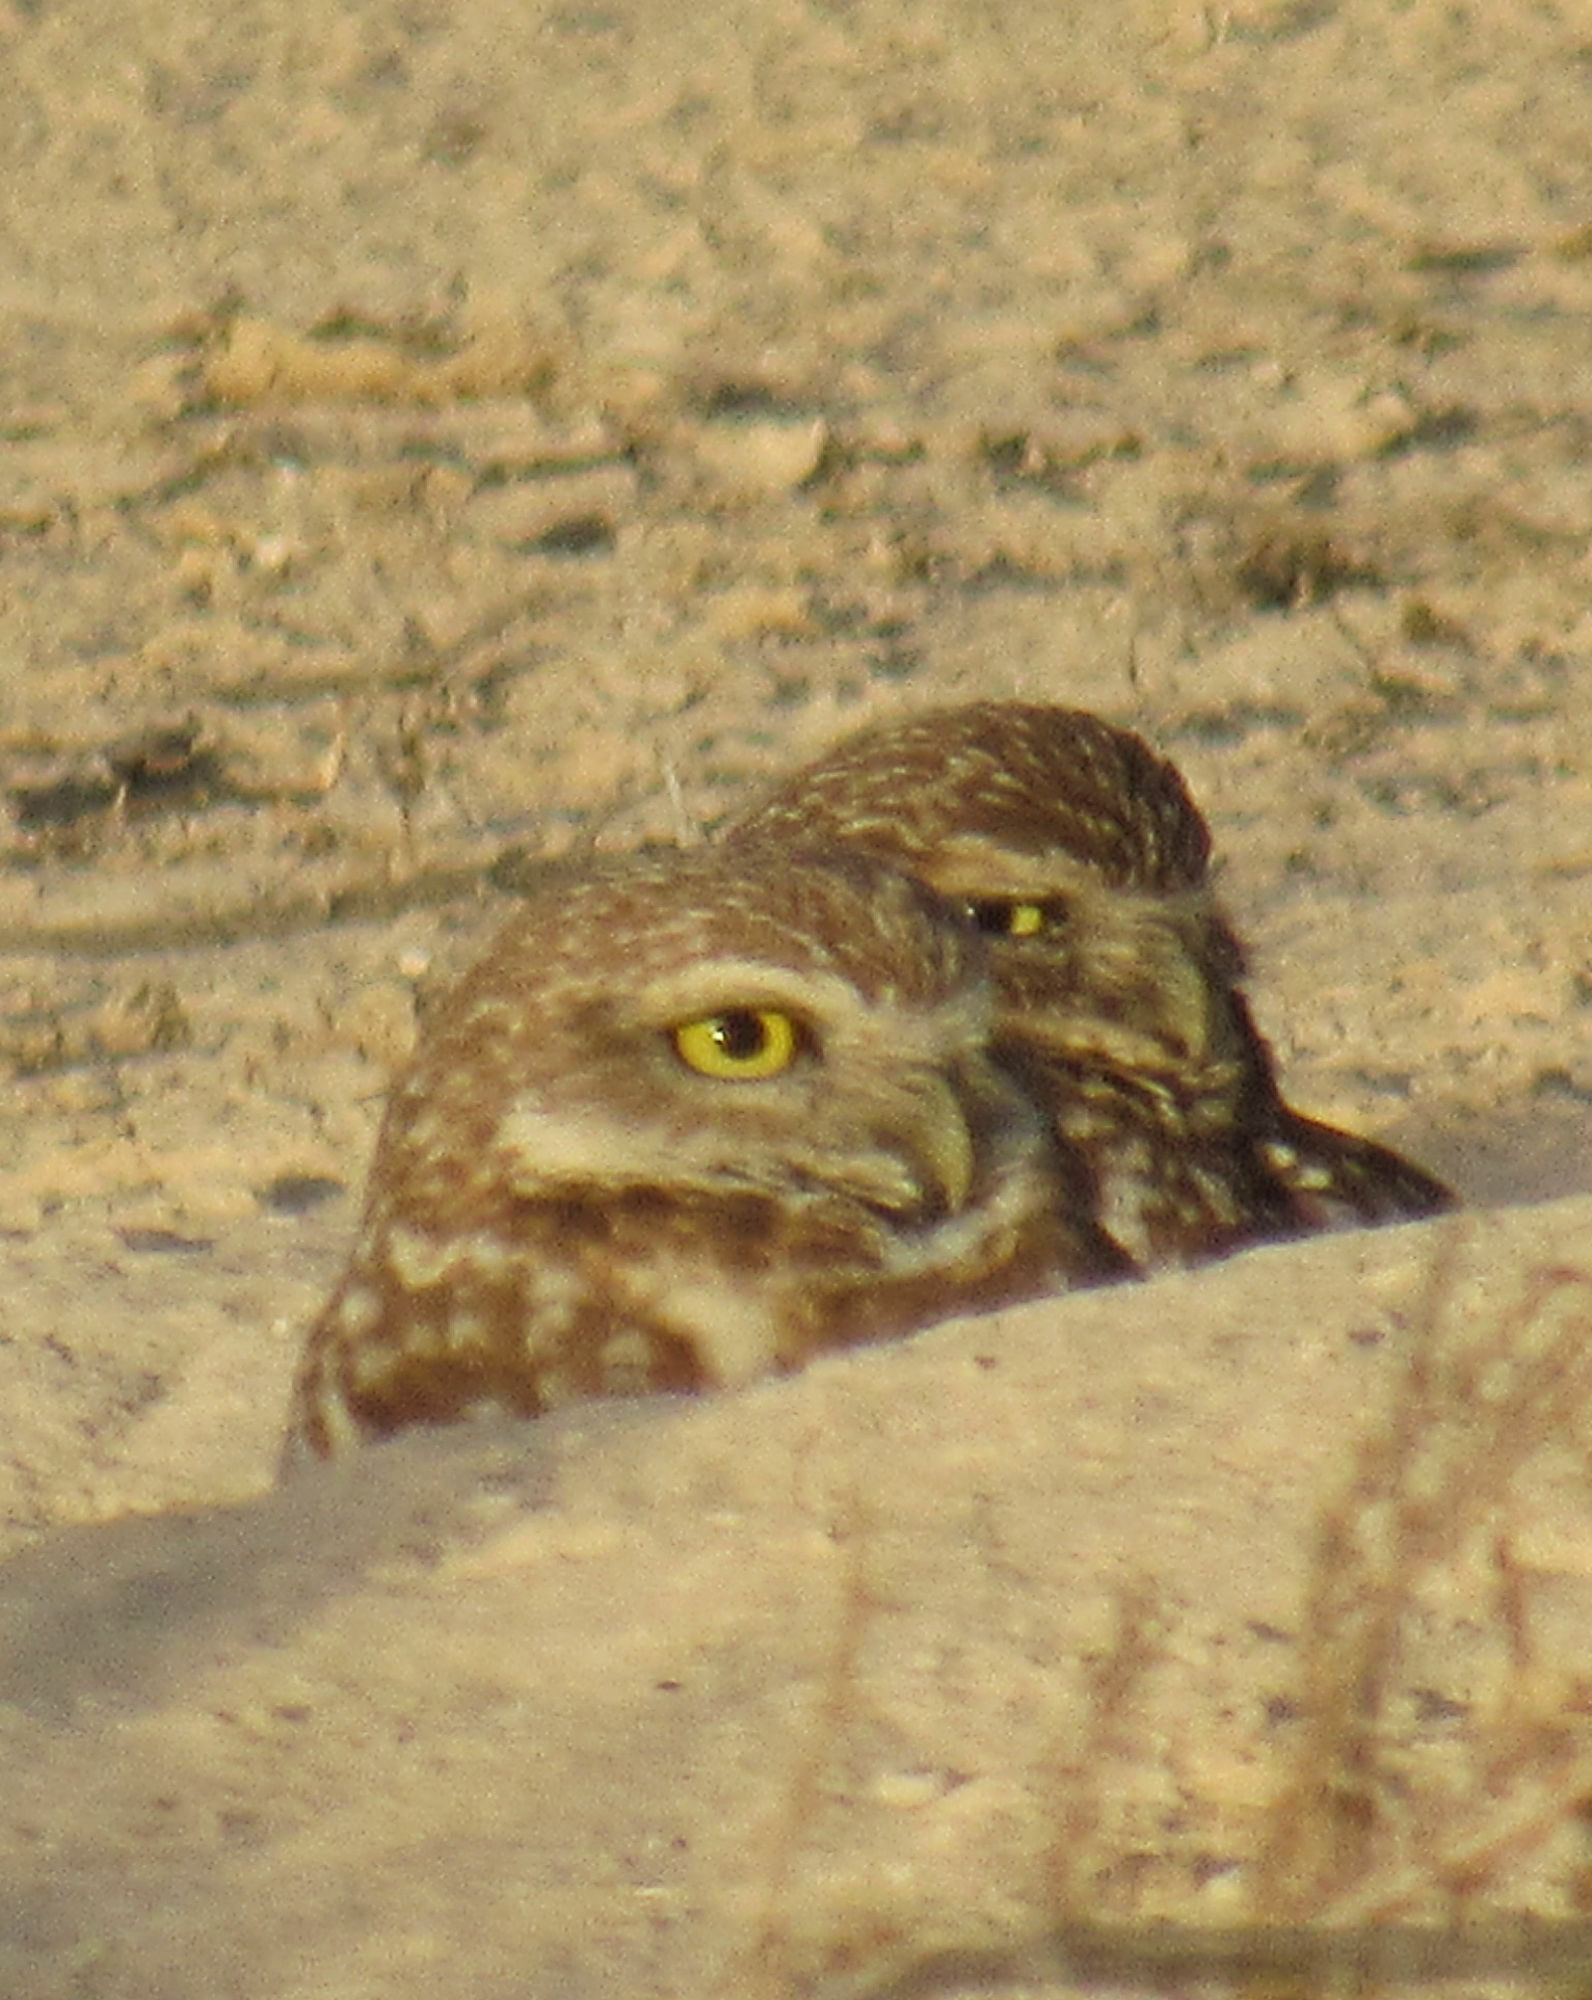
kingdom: Animalia
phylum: Chordata
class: Aves
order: Strigiformes
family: Strigidae
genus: Athene
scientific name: Athene cunicularia
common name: Burrowing owl
